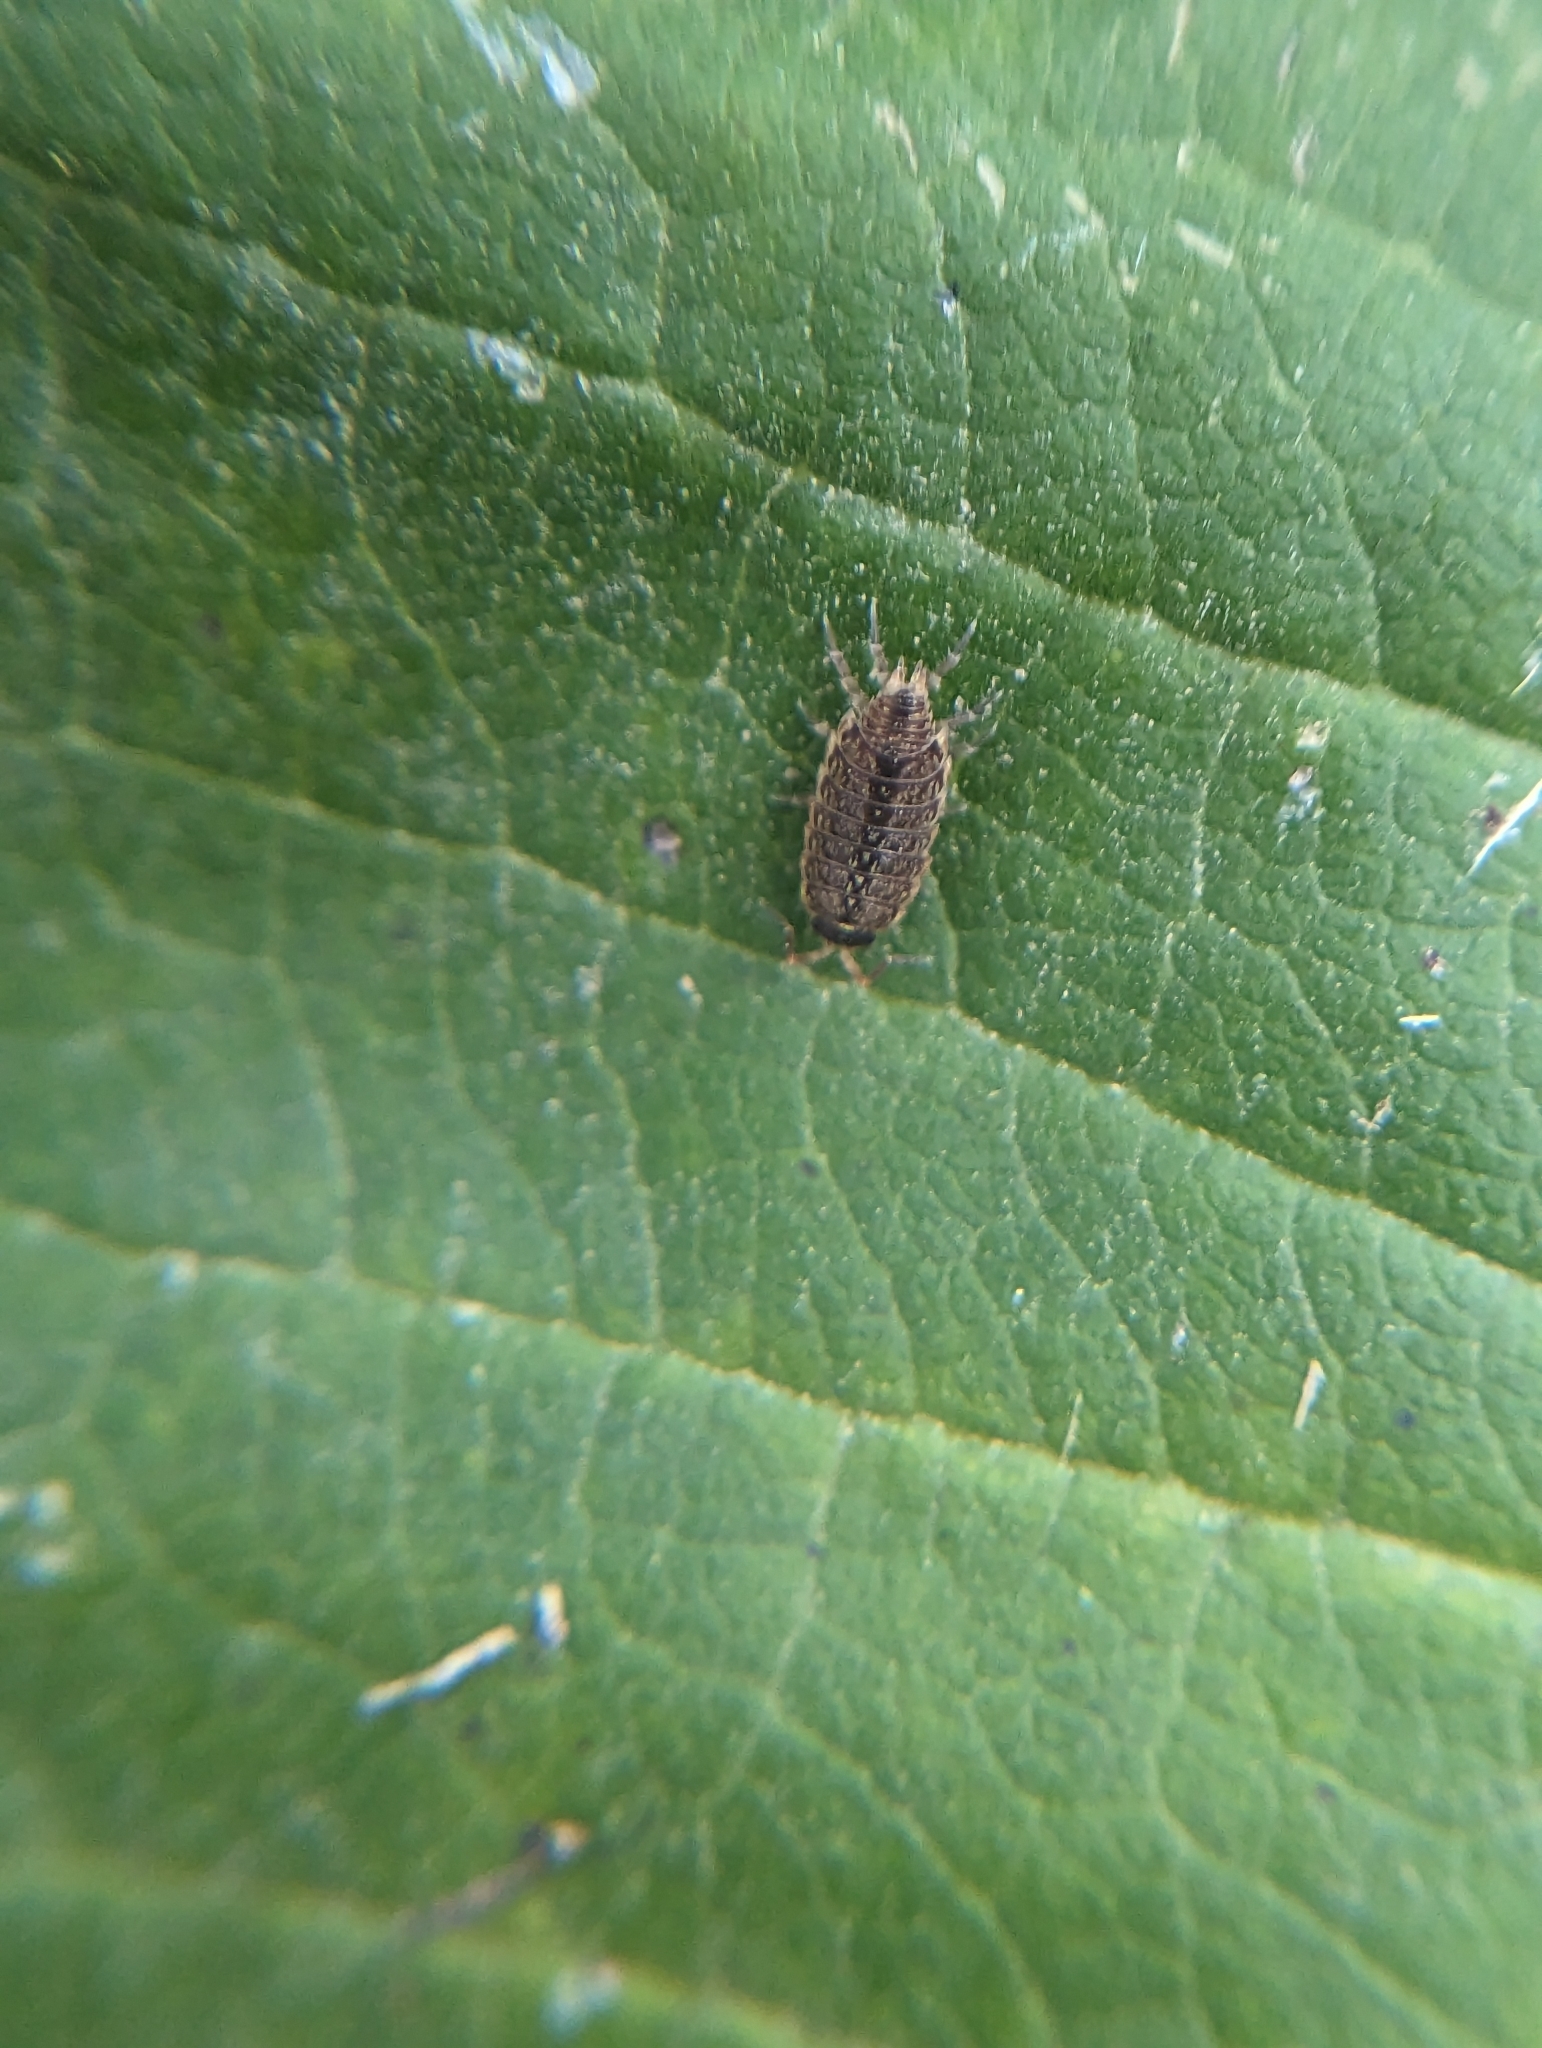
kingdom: Animalia
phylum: Arthropoda
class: Malacostraca
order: Isopoda
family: Philosciidae
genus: Philoscia
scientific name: Philoscia muscorum
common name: Common striped woodlouse
